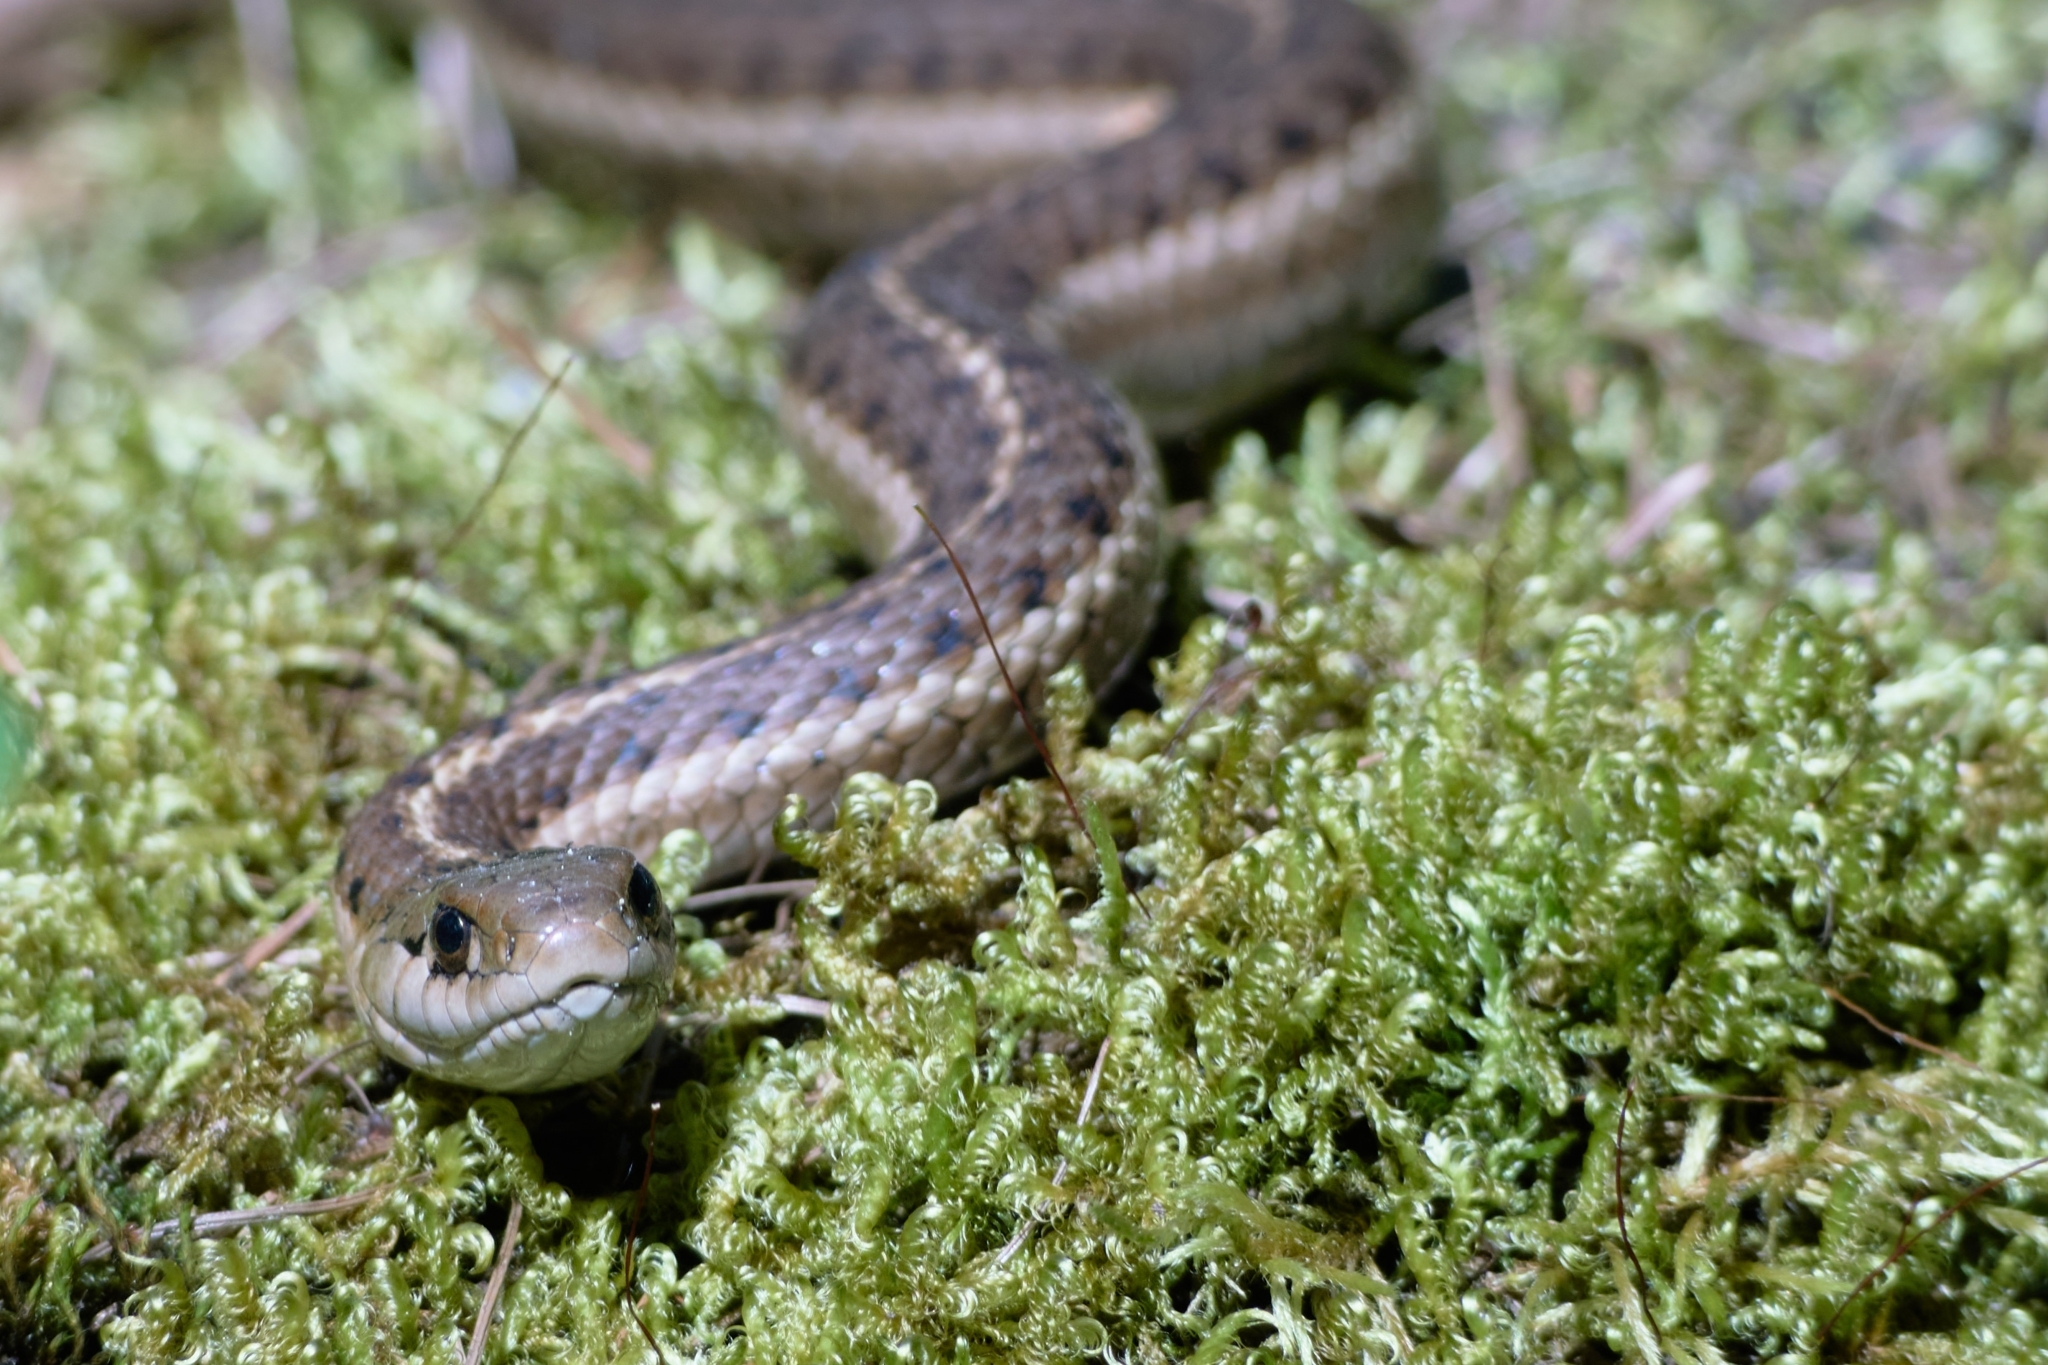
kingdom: Animalia
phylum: Chordata
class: Squamata
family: Colubridae
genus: Thamnophis
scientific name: Thamnophis elegans
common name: Western terrestrial garter snake
